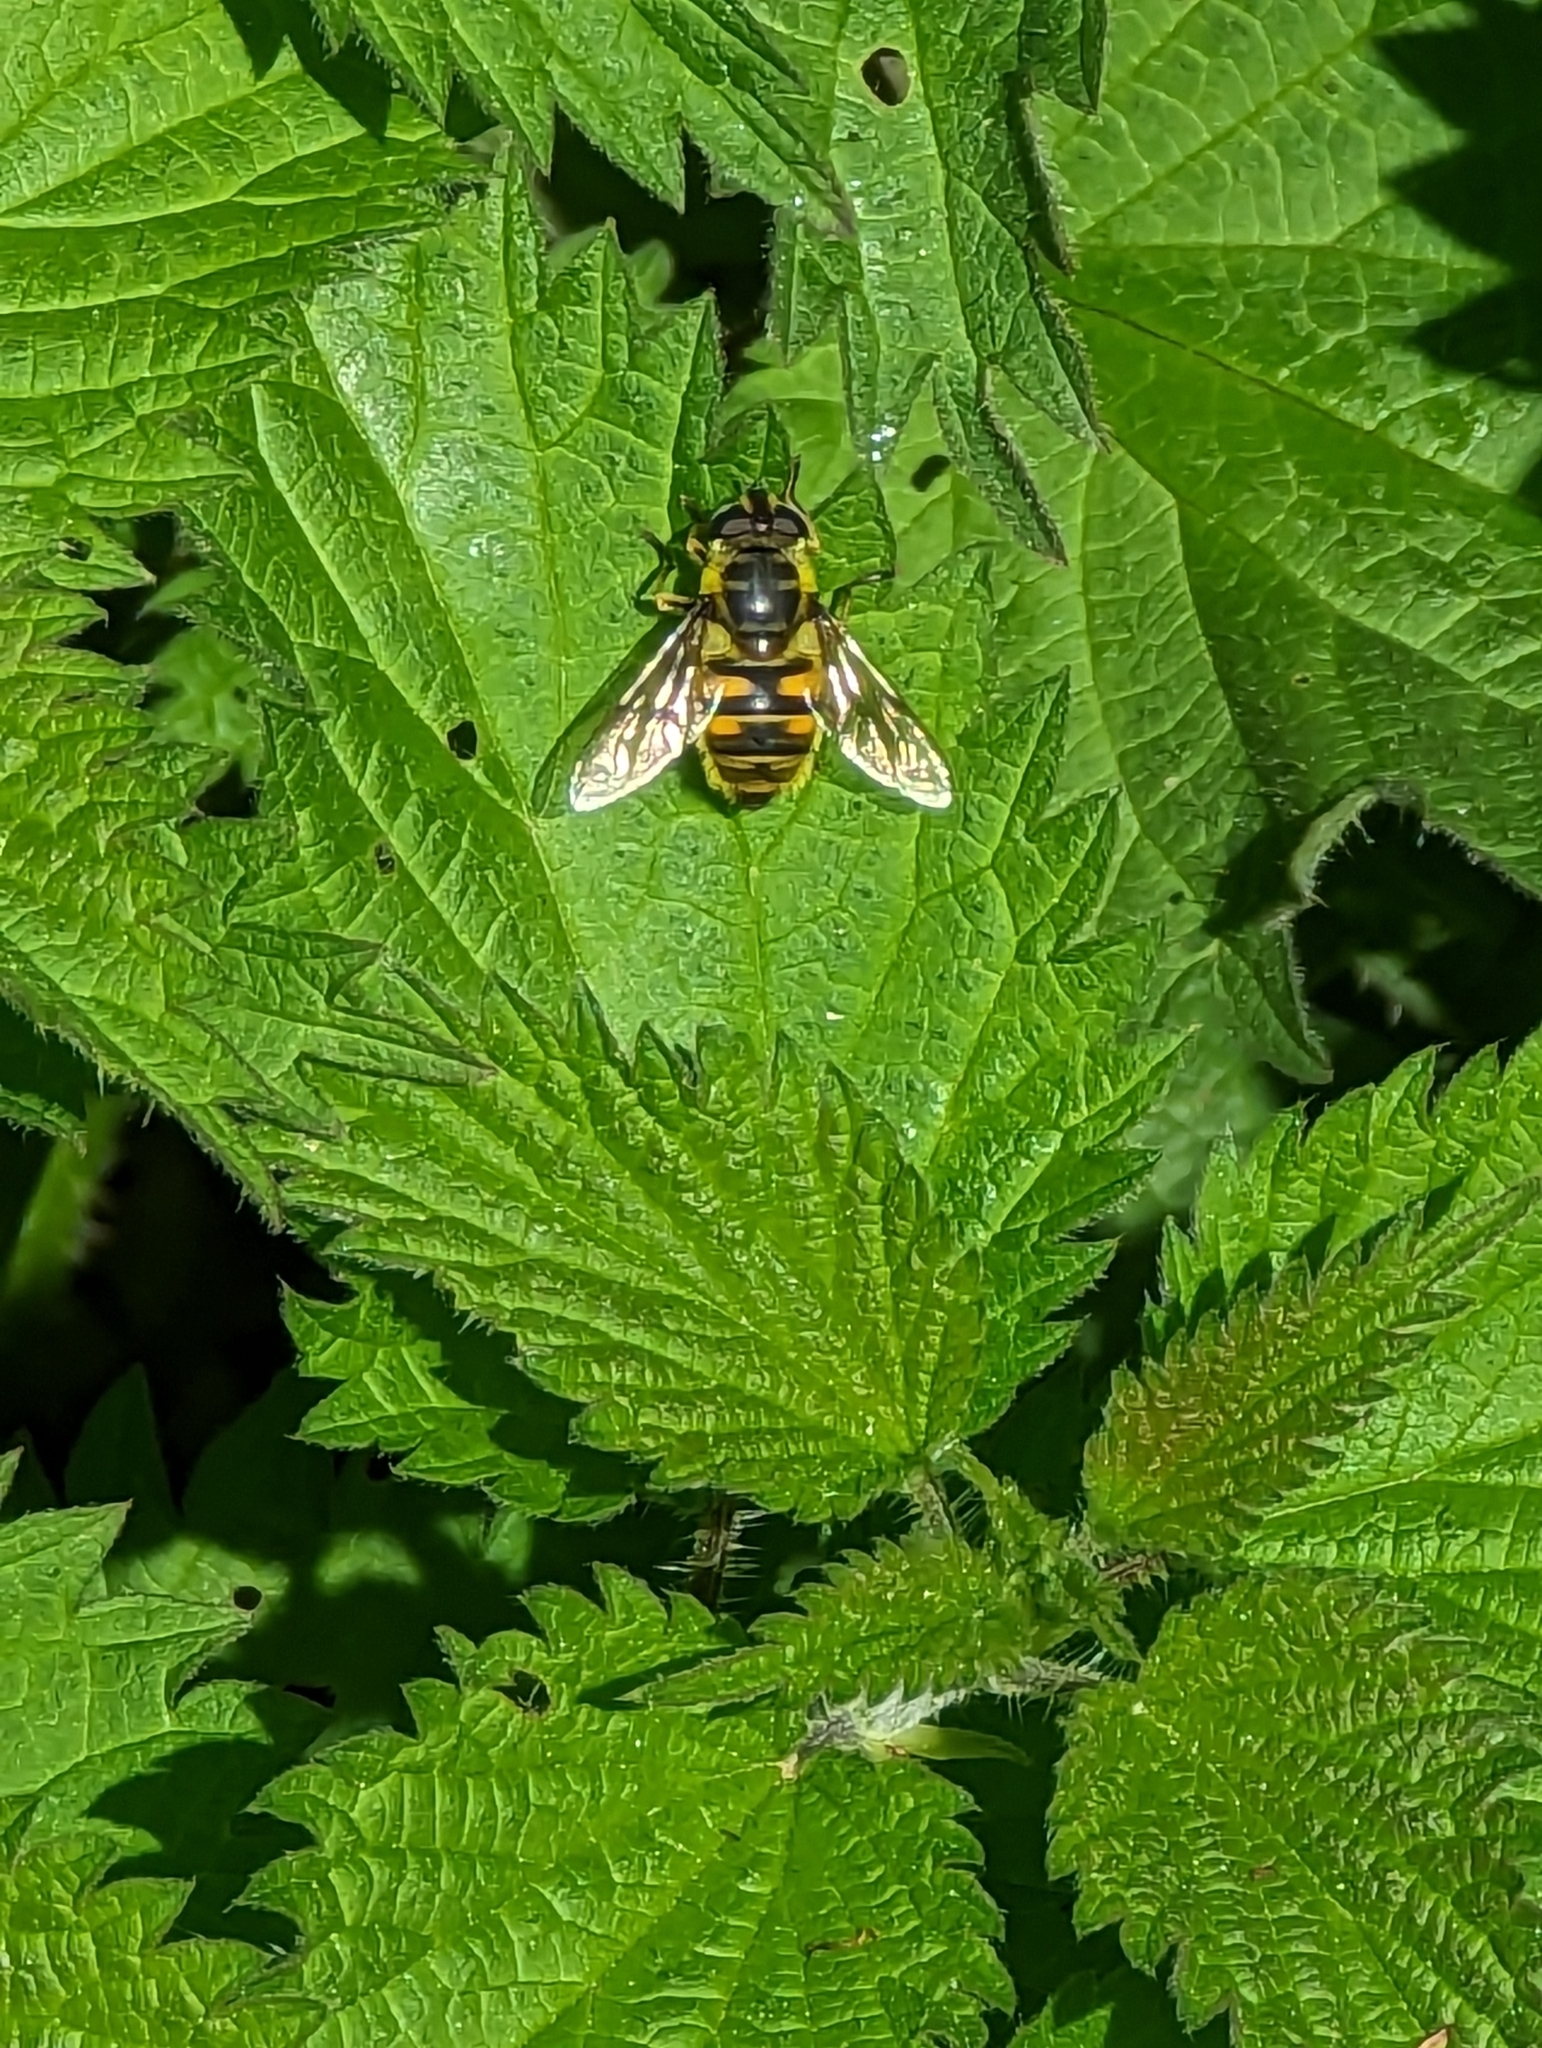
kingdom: Animalia
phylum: Arthropoda
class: Insecta
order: Diptera
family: Syrphidae
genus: Myathropa
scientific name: Myathropa florea
